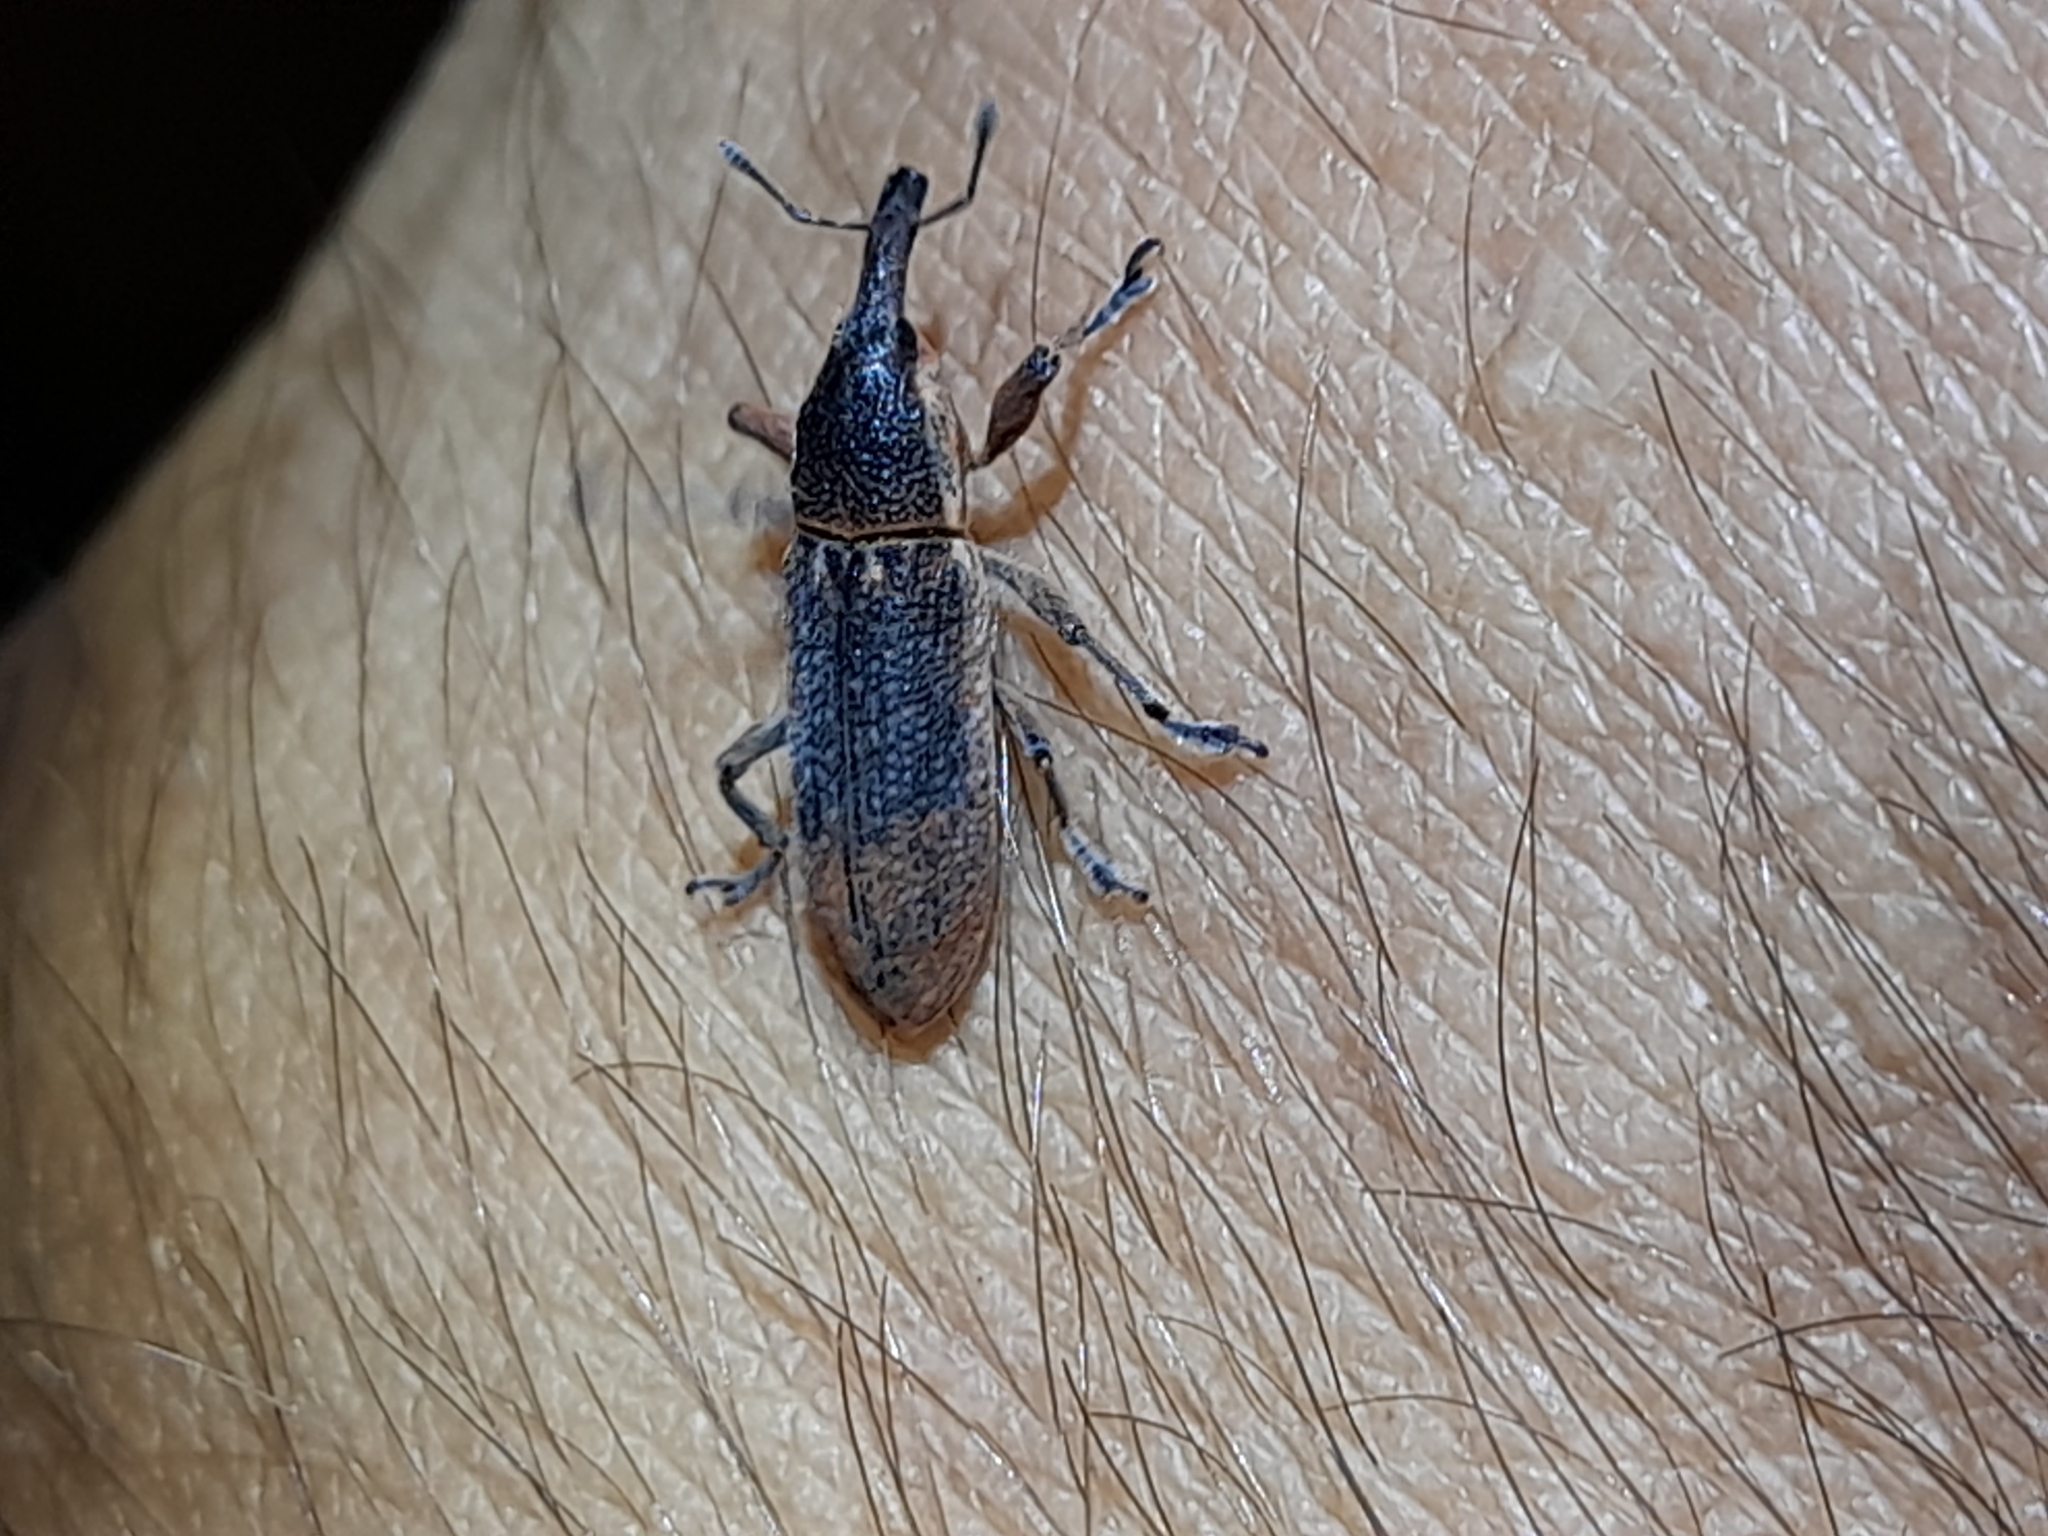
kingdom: Animalia
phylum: Arthropoda
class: Insecta
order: Coleoptera
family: Curculionidae
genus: Lixus
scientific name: Lixus punctiventris
